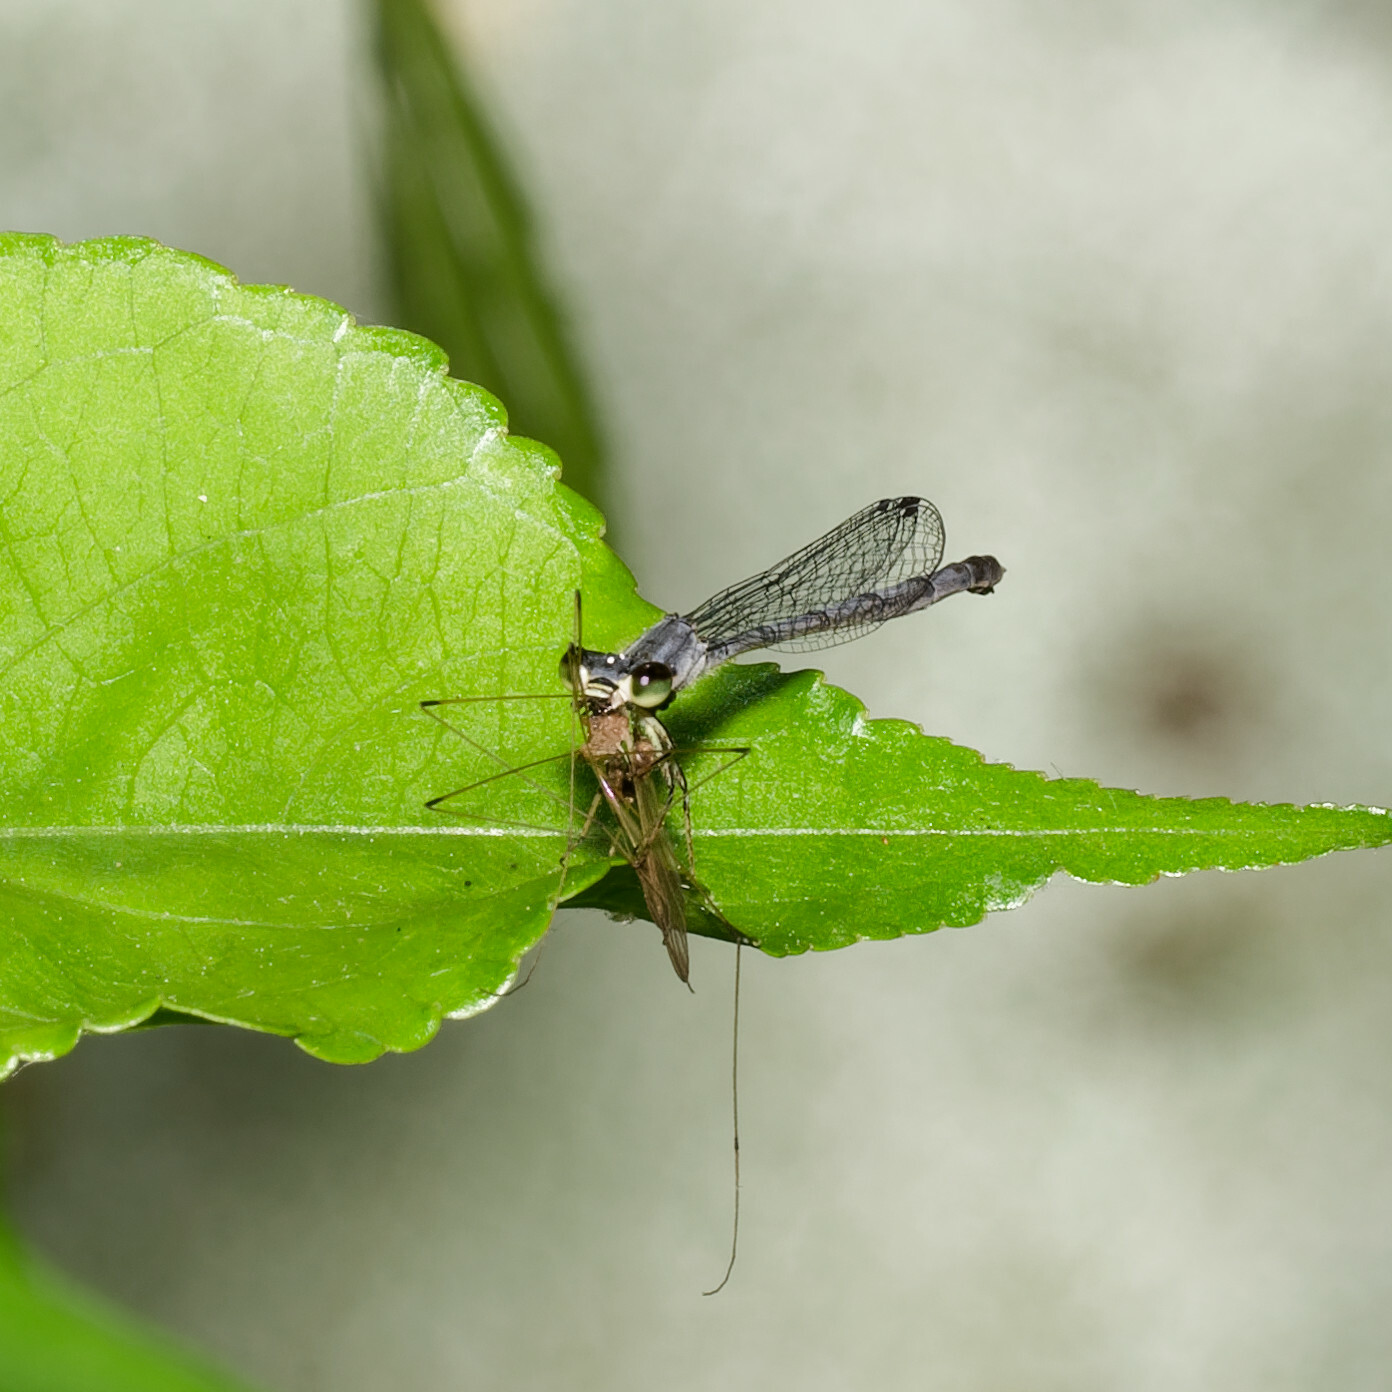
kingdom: Animalia
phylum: Arthropoda
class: Insecta
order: Odonata
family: Coenagrionidae
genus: Ischnura
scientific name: Ischnura posita
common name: Fragile forktail
